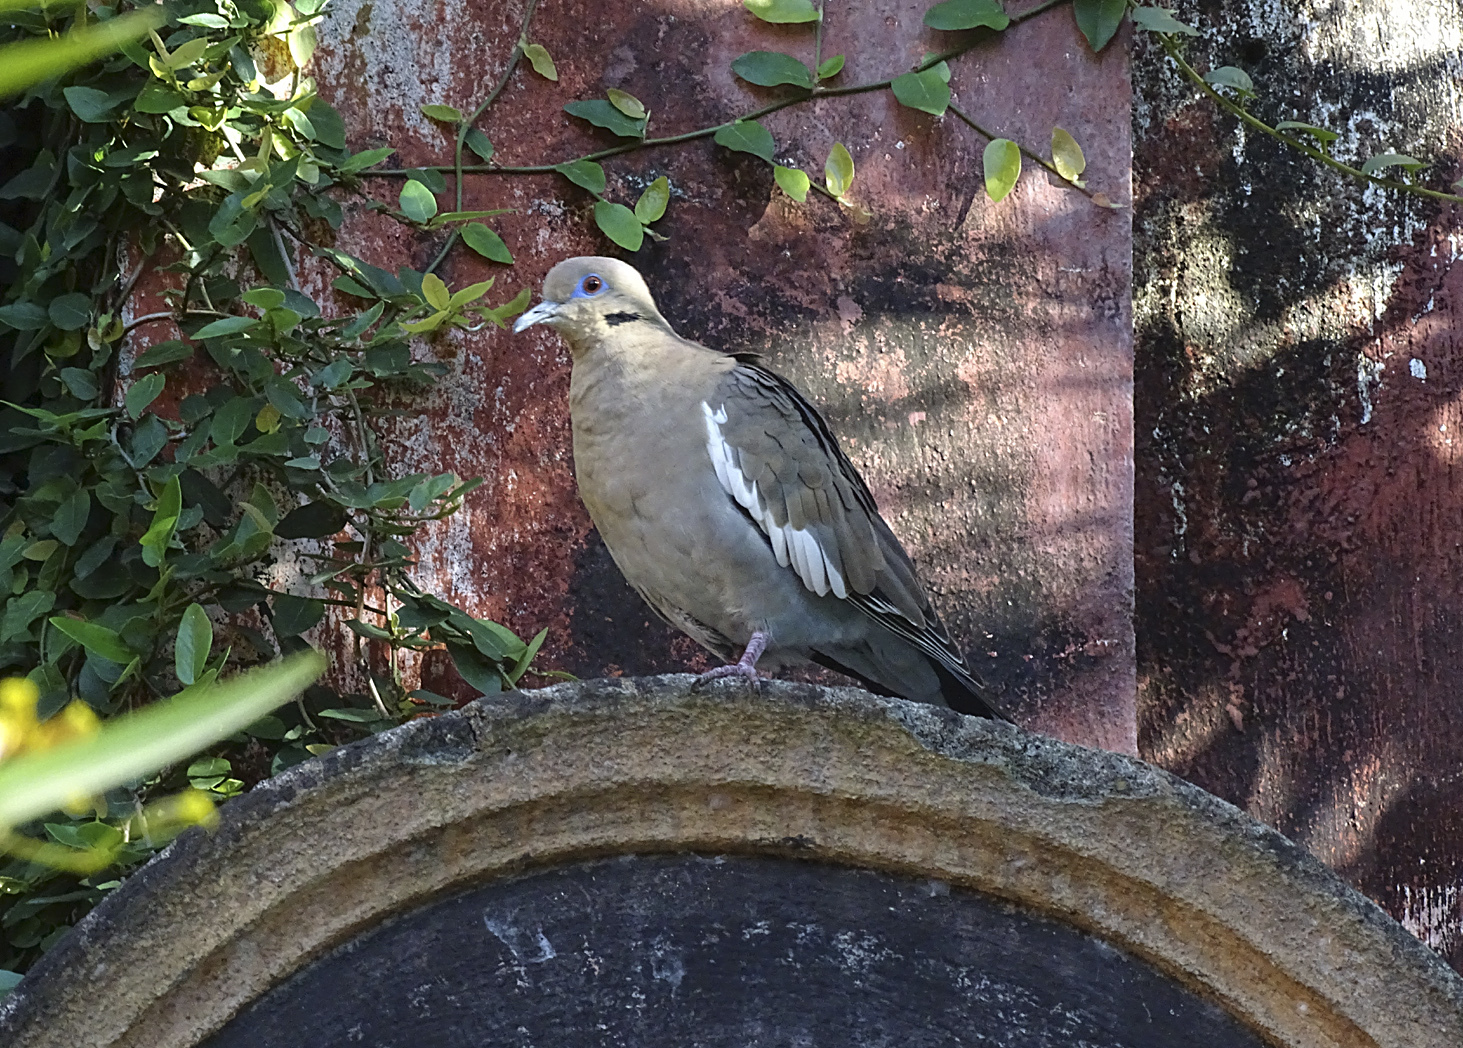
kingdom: Animalia
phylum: Chordata
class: Aves
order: Columbiformes
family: Columbidae
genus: Zenaida
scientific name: Zenaida asiatica
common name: White-winged dove
